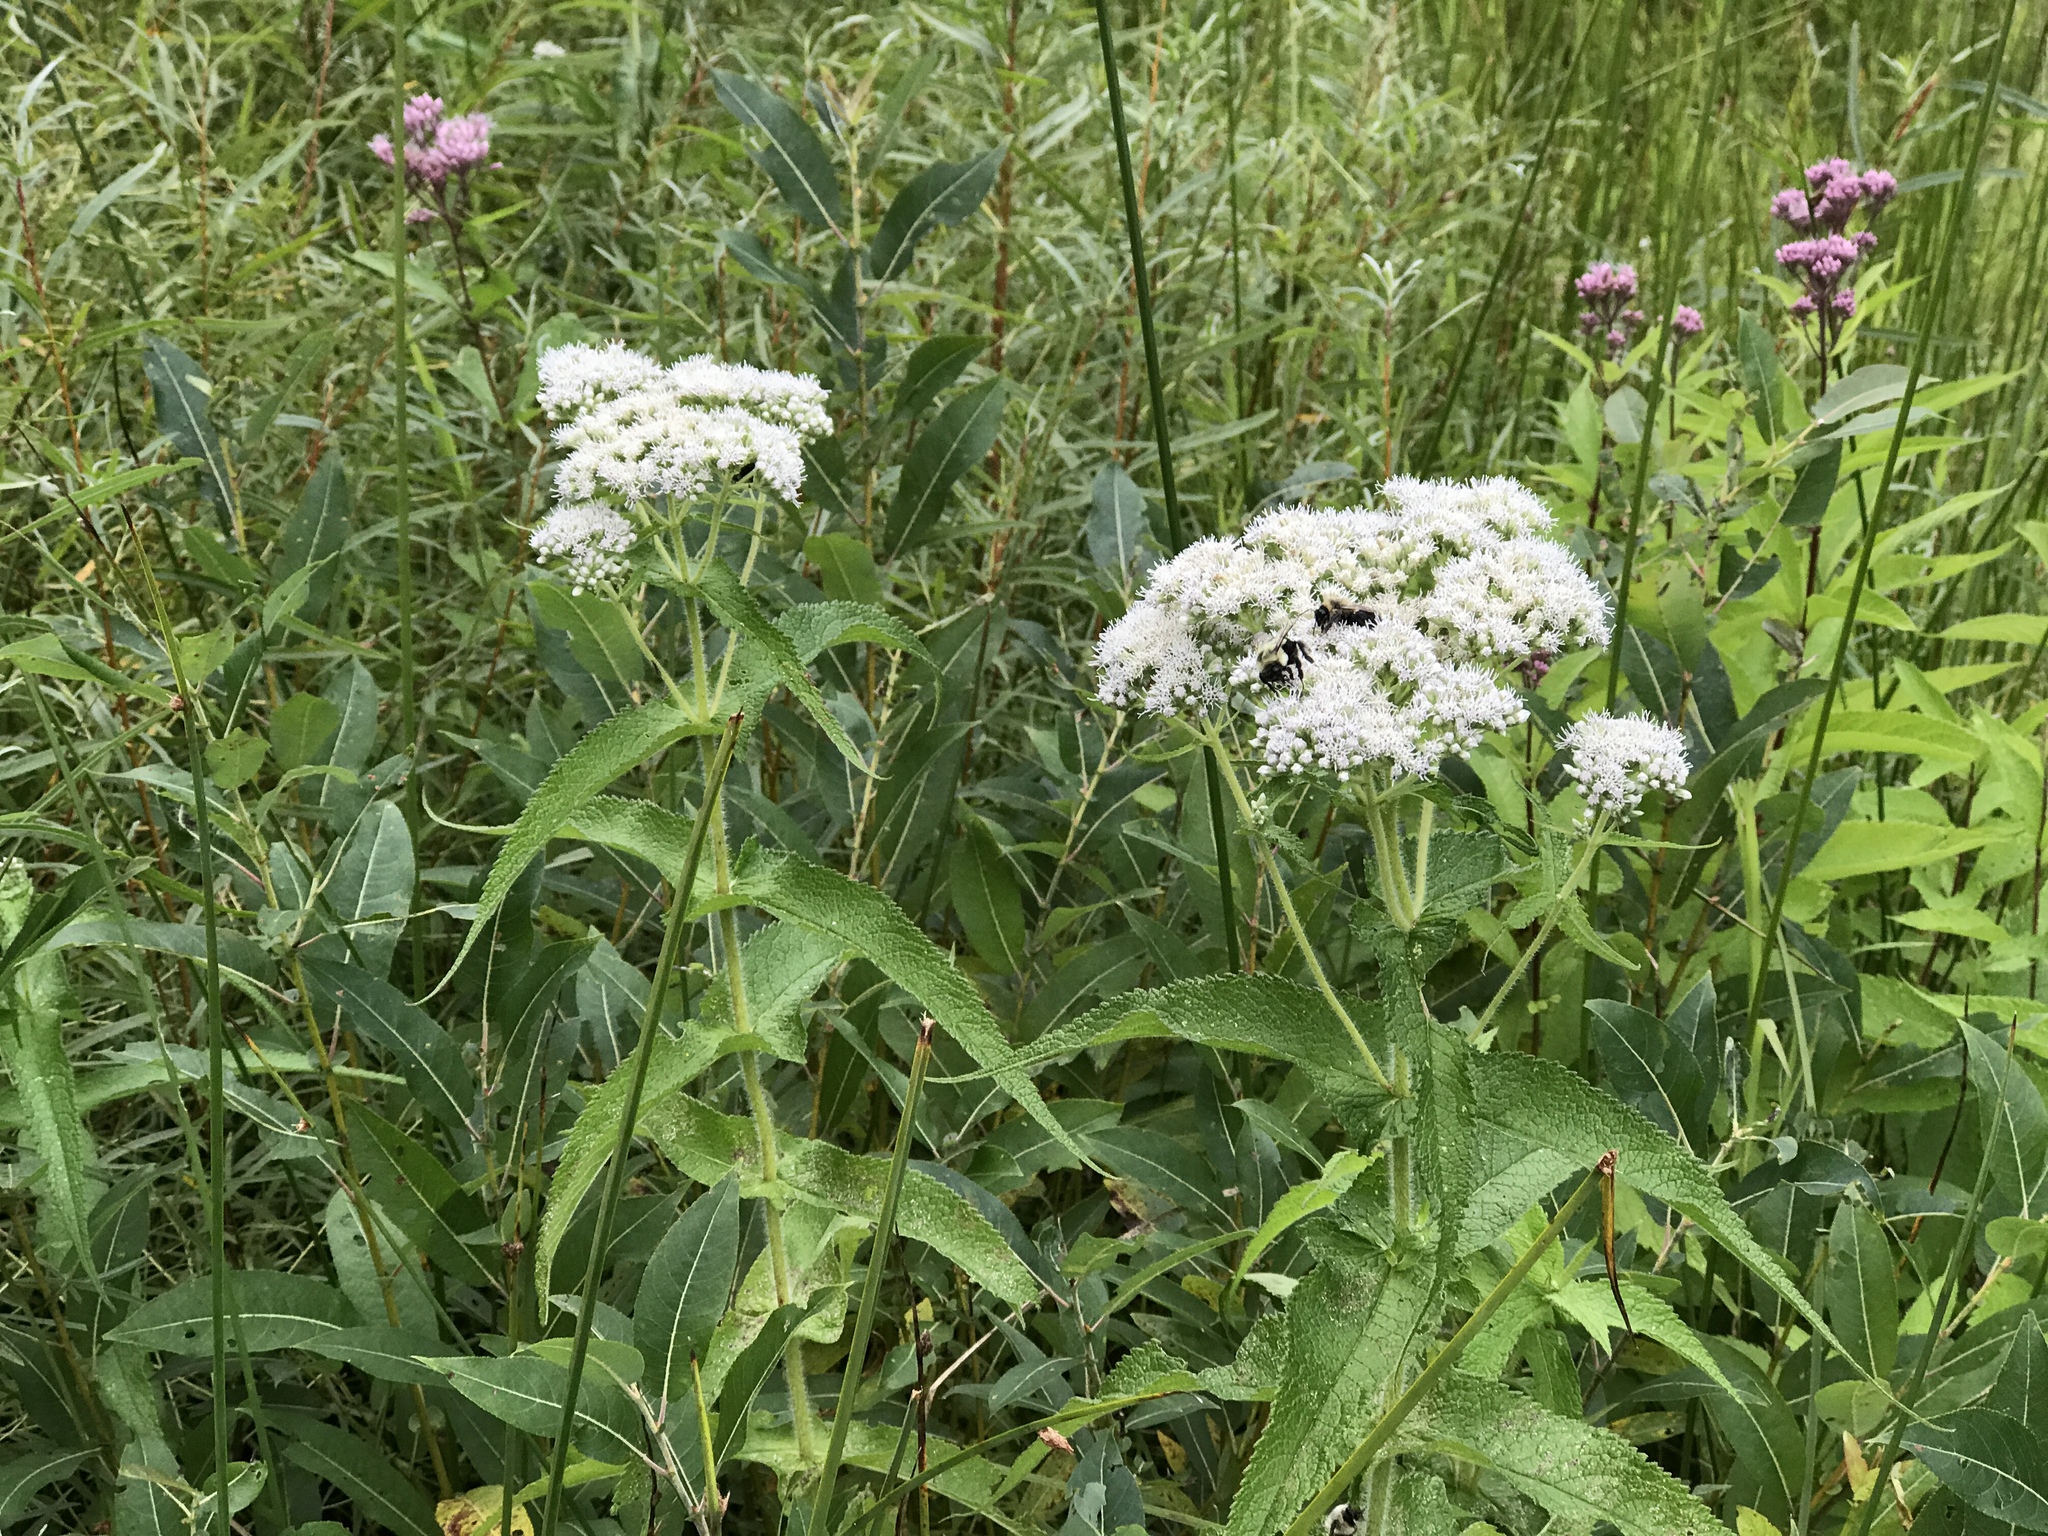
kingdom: Plantae
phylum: Tracheophyta
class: Magnoliopsida
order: Asterales
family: Asteraceae
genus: Eupatorium
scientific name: Eupatorium perfoliatum
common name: Boneset
